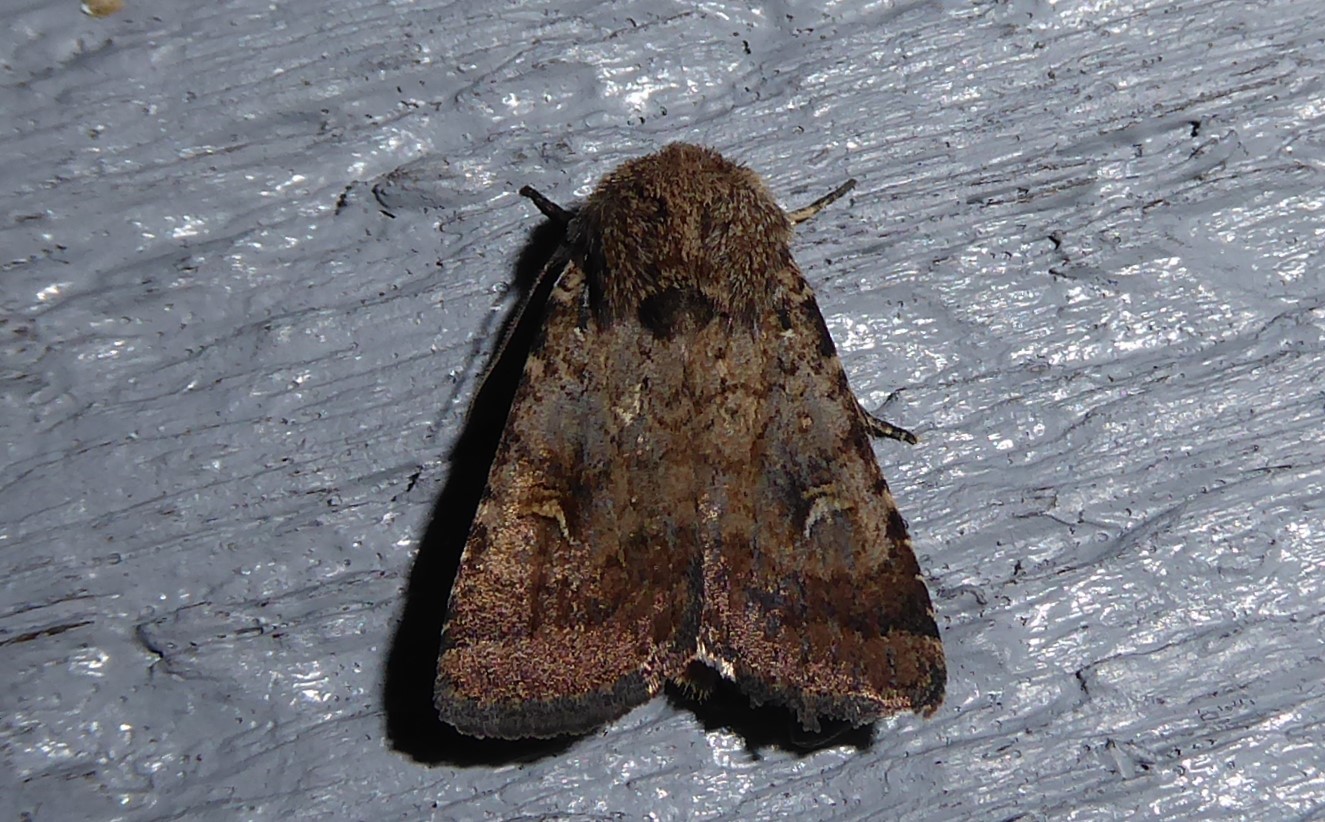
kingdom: Animalia
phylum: Arthropoda
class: Insecta
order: Lepidoptera
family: Noctuidae
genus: Proteuxoa
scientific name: Proteuxoa tetronycha
